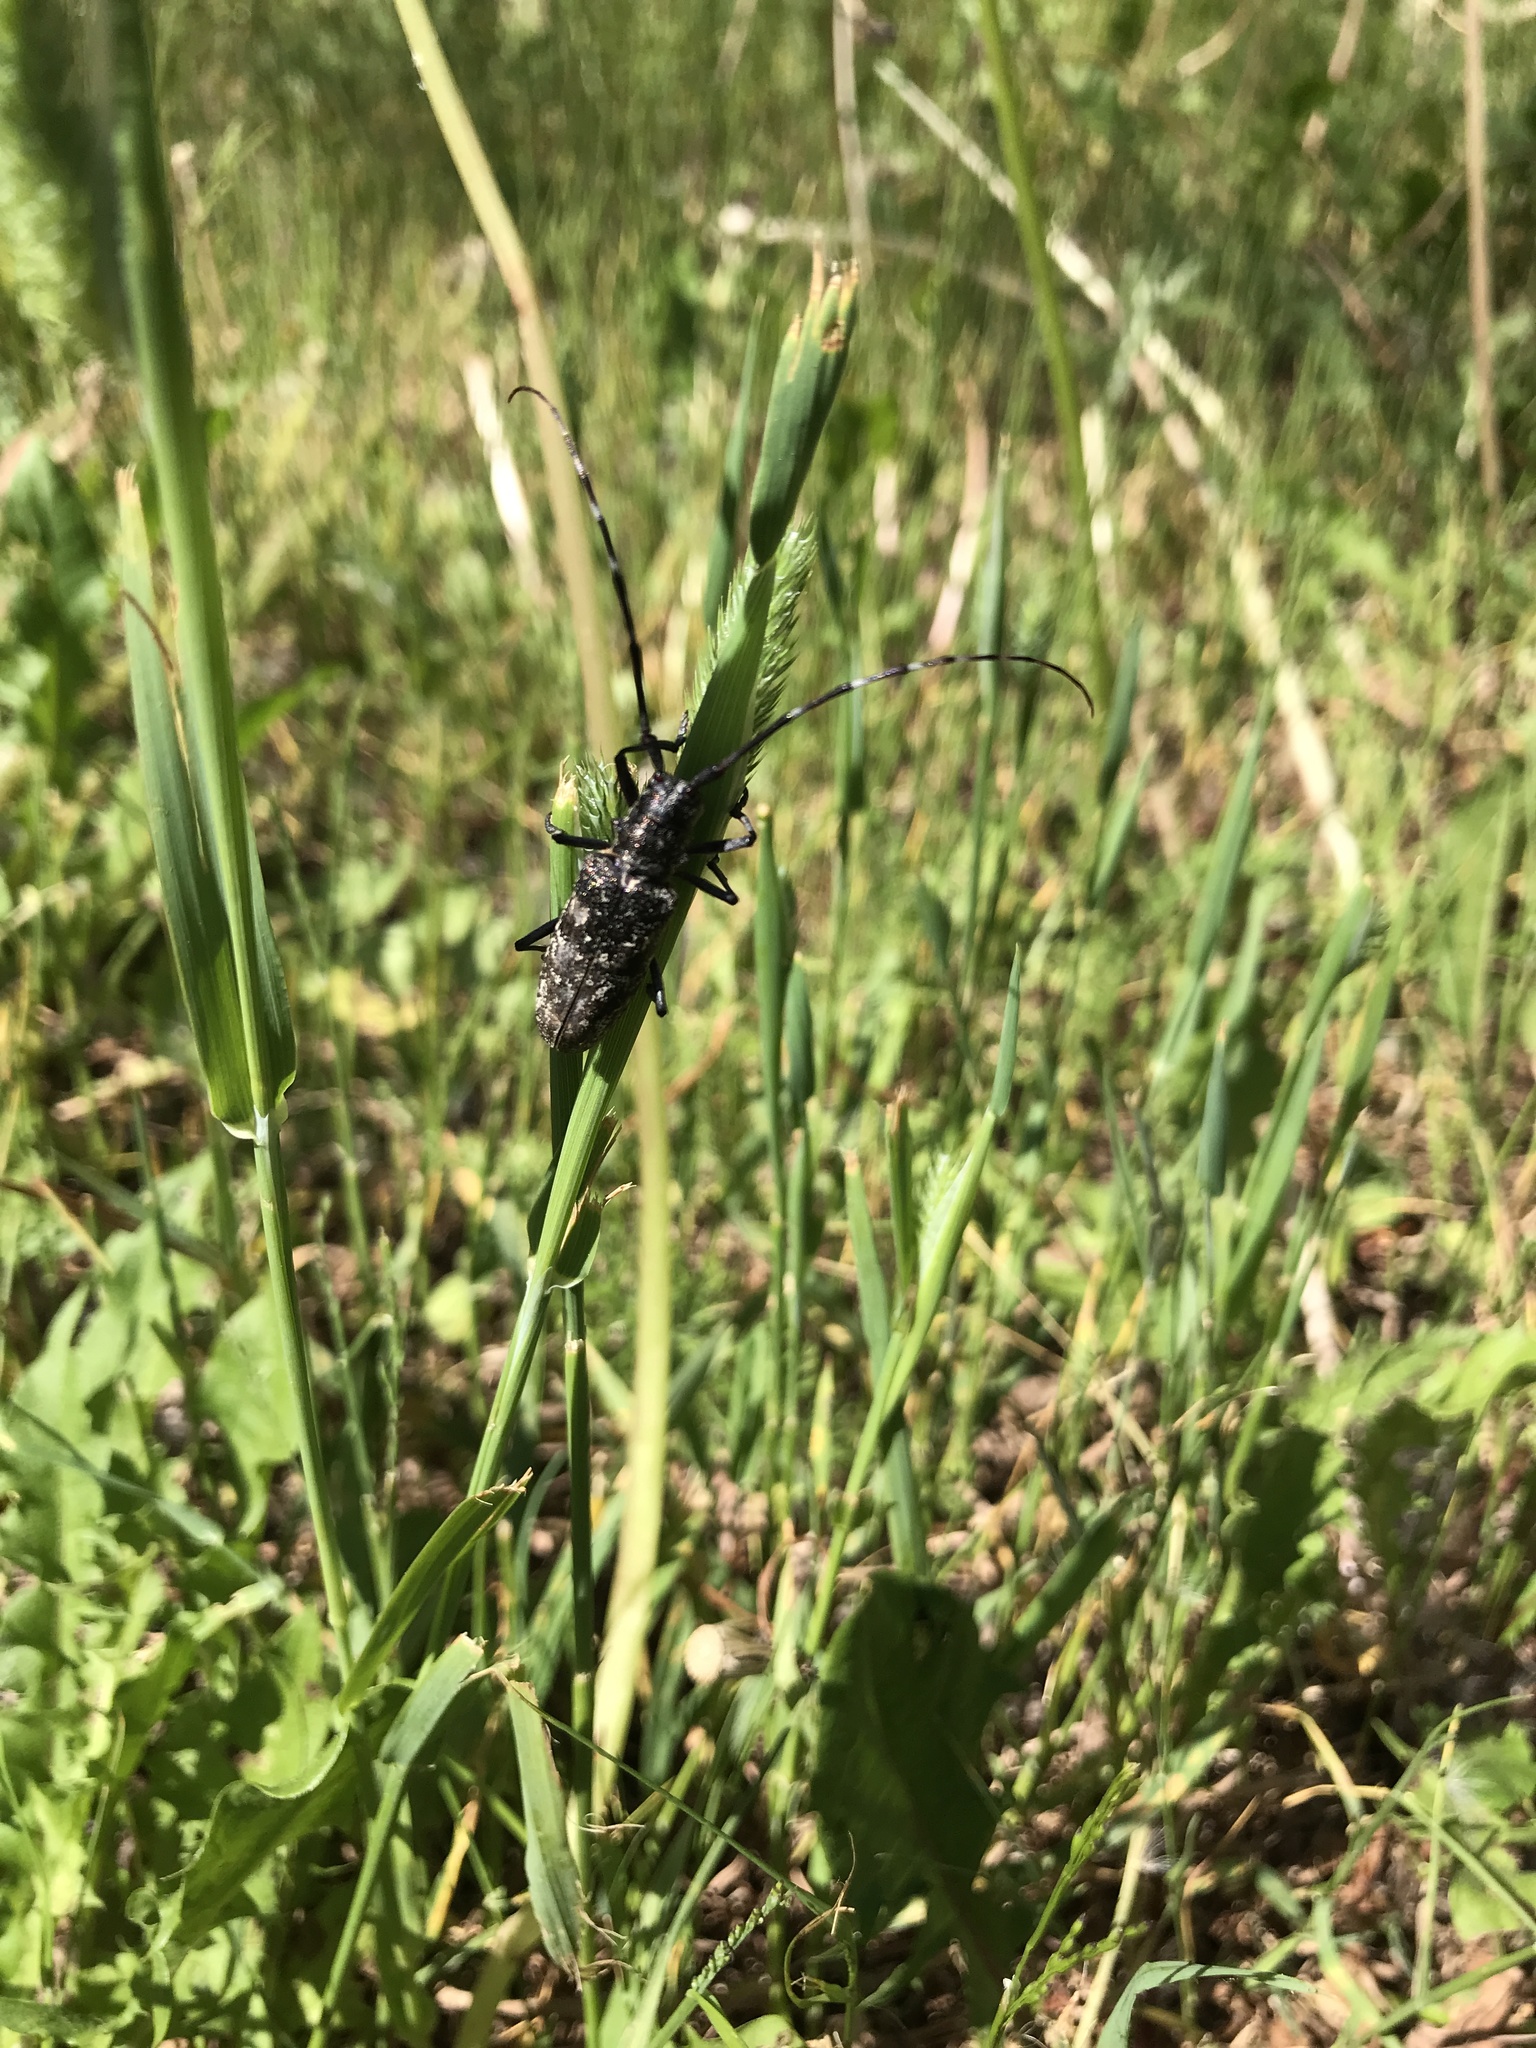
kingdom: Animalia
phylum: Arthropoda
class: Insecta
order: Coleoptera
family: Cerambycidae
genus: Monochamus
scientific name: Monochamus scutellatus
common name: White-spotted sawyer beetle
